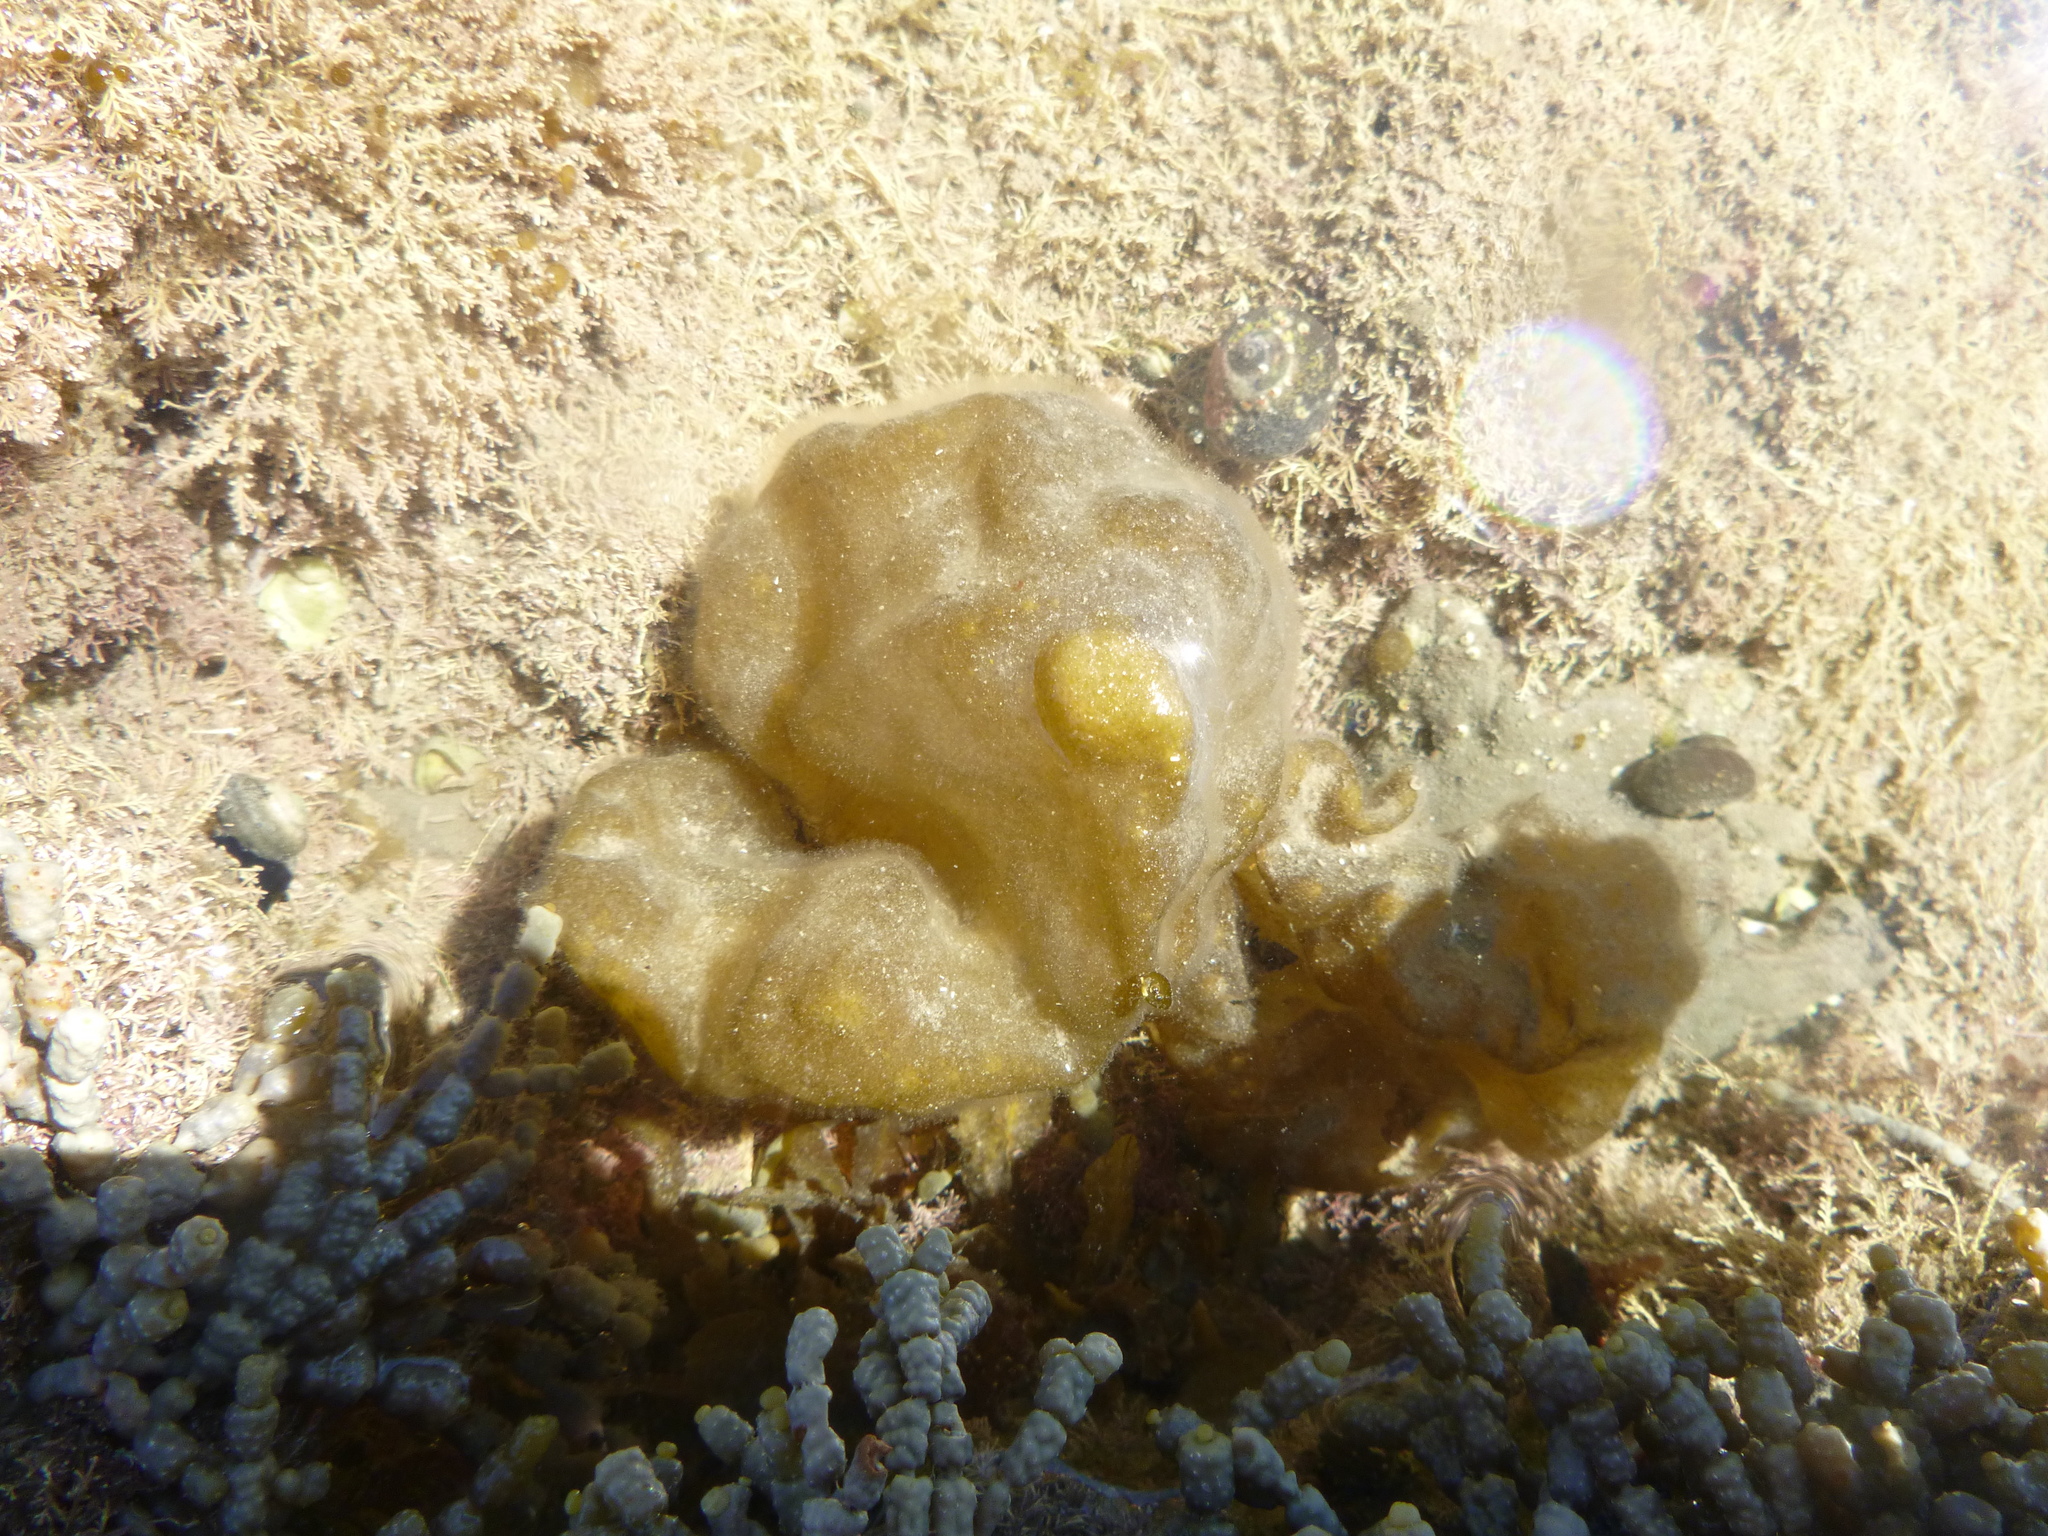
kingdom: Chromista
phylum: Ochrophyta
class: Phaeophyceae
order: Scytosiphonales
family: Scytosiphonaceae
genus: Colpomenia
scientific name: Colpomenia peregrina
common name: Oyster thief
